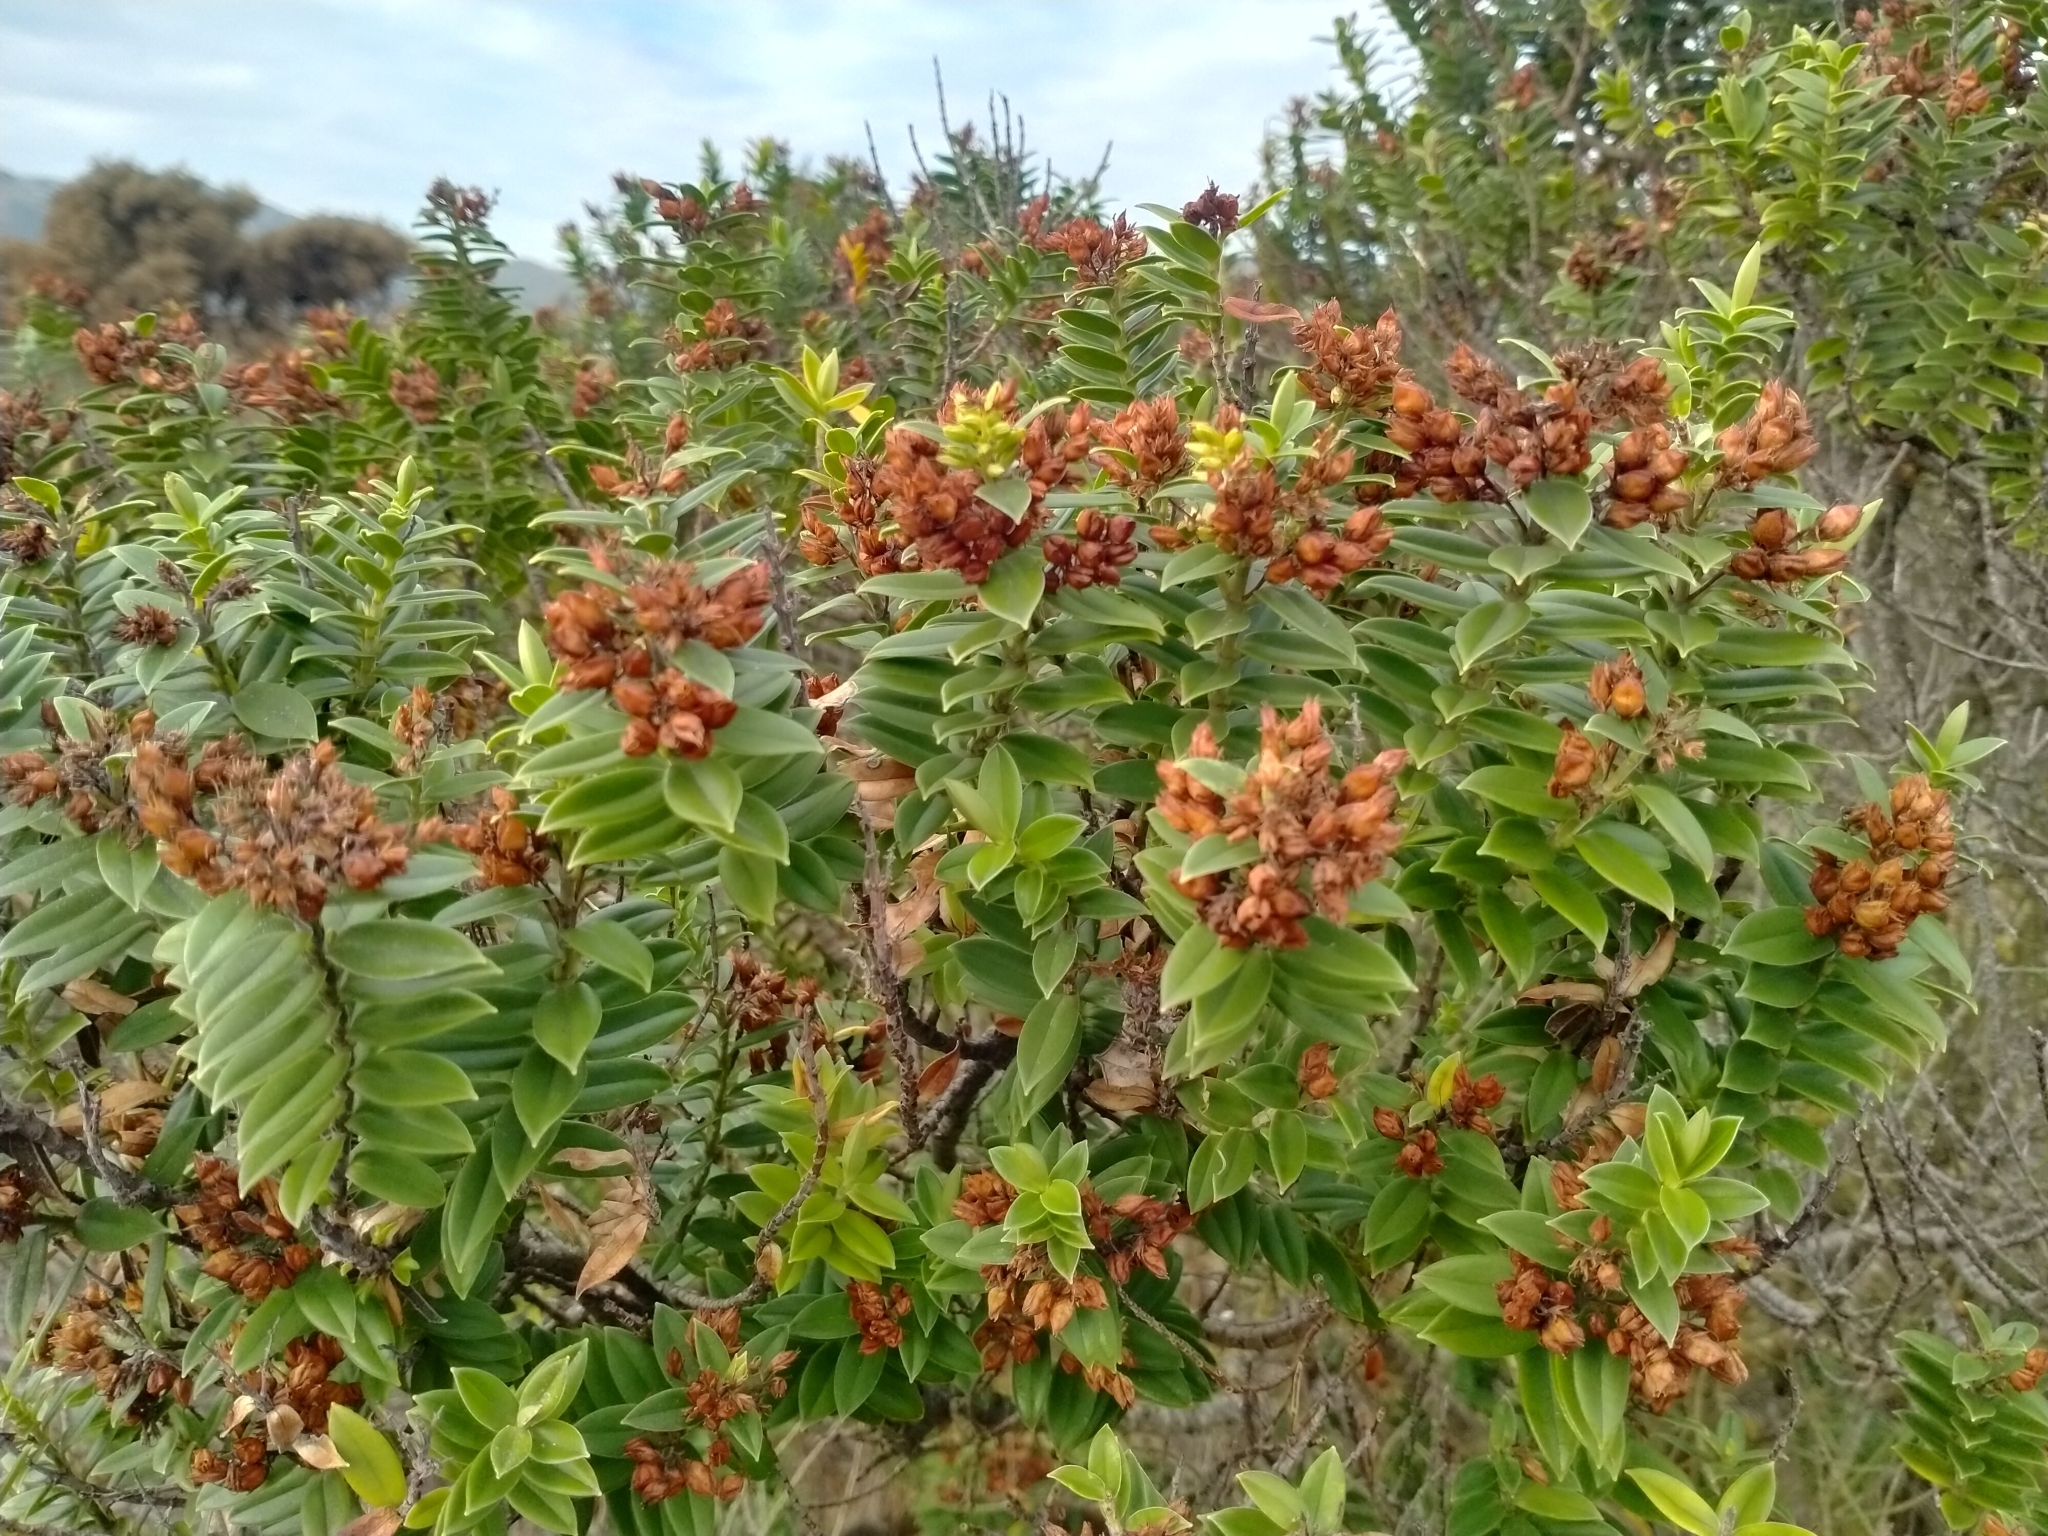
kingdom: Plantae
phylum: Tracheophyta
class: Magnoliopsida
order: Lamiales
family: Plantaginaceae
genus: Veronica
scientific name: Veronica elliptica
